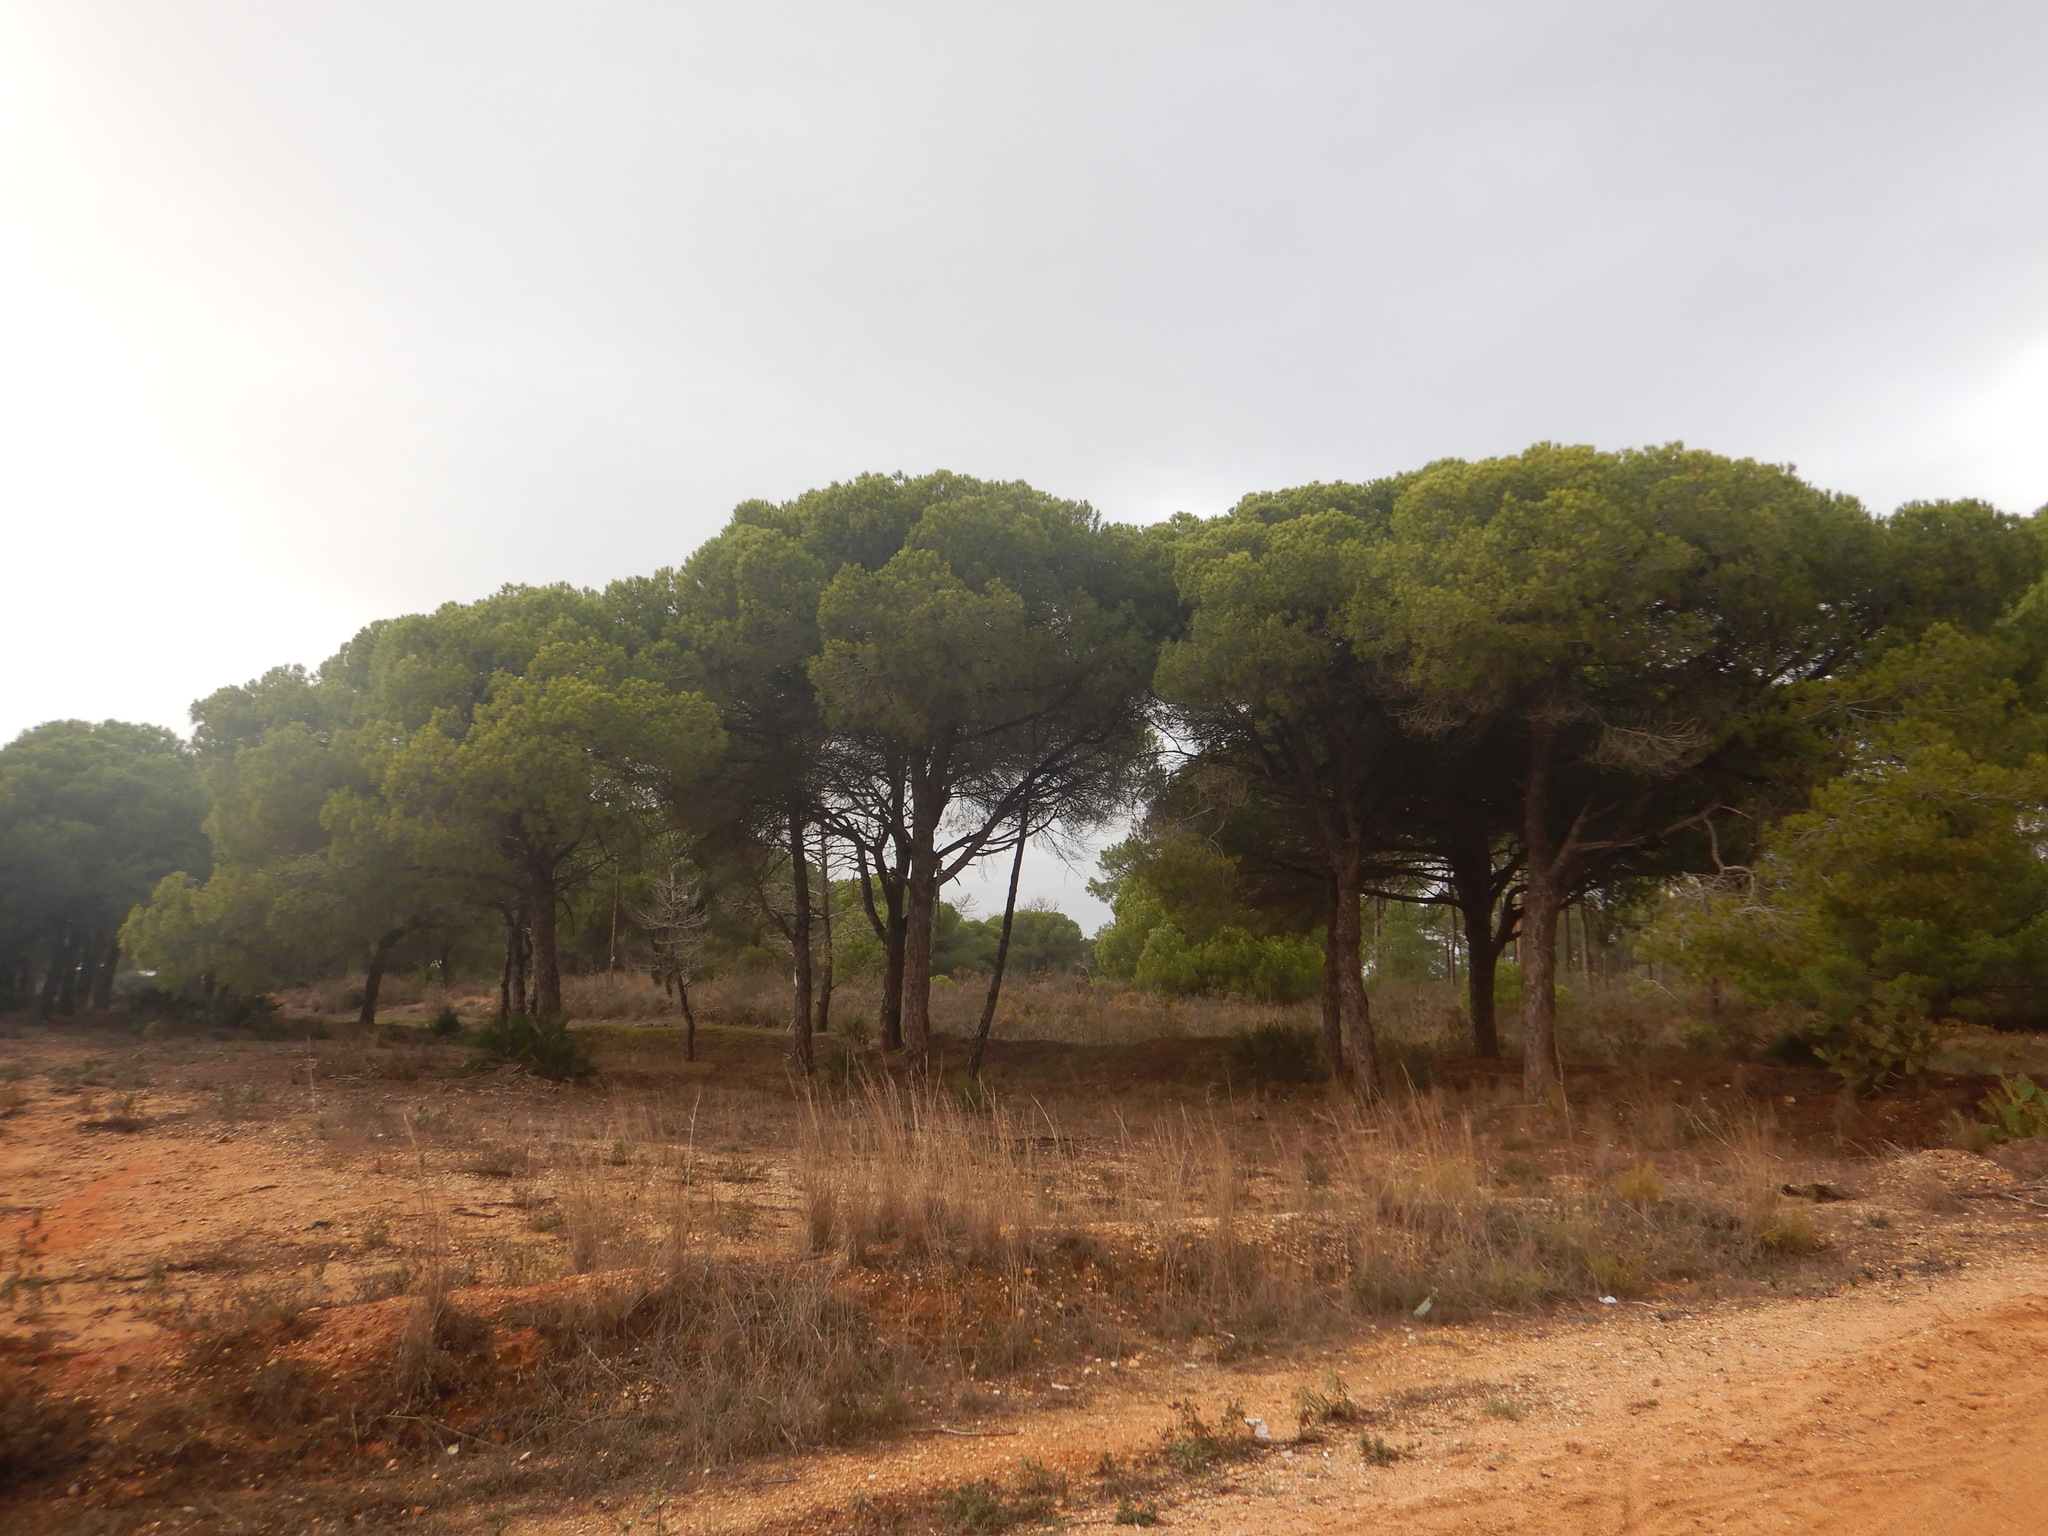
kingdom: Plantae
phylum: Tracheophyta
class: Pinopsida
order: Pinales
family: Pinaceae
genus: Pinus
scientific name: Pinus pinea
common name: Italian stone pine
